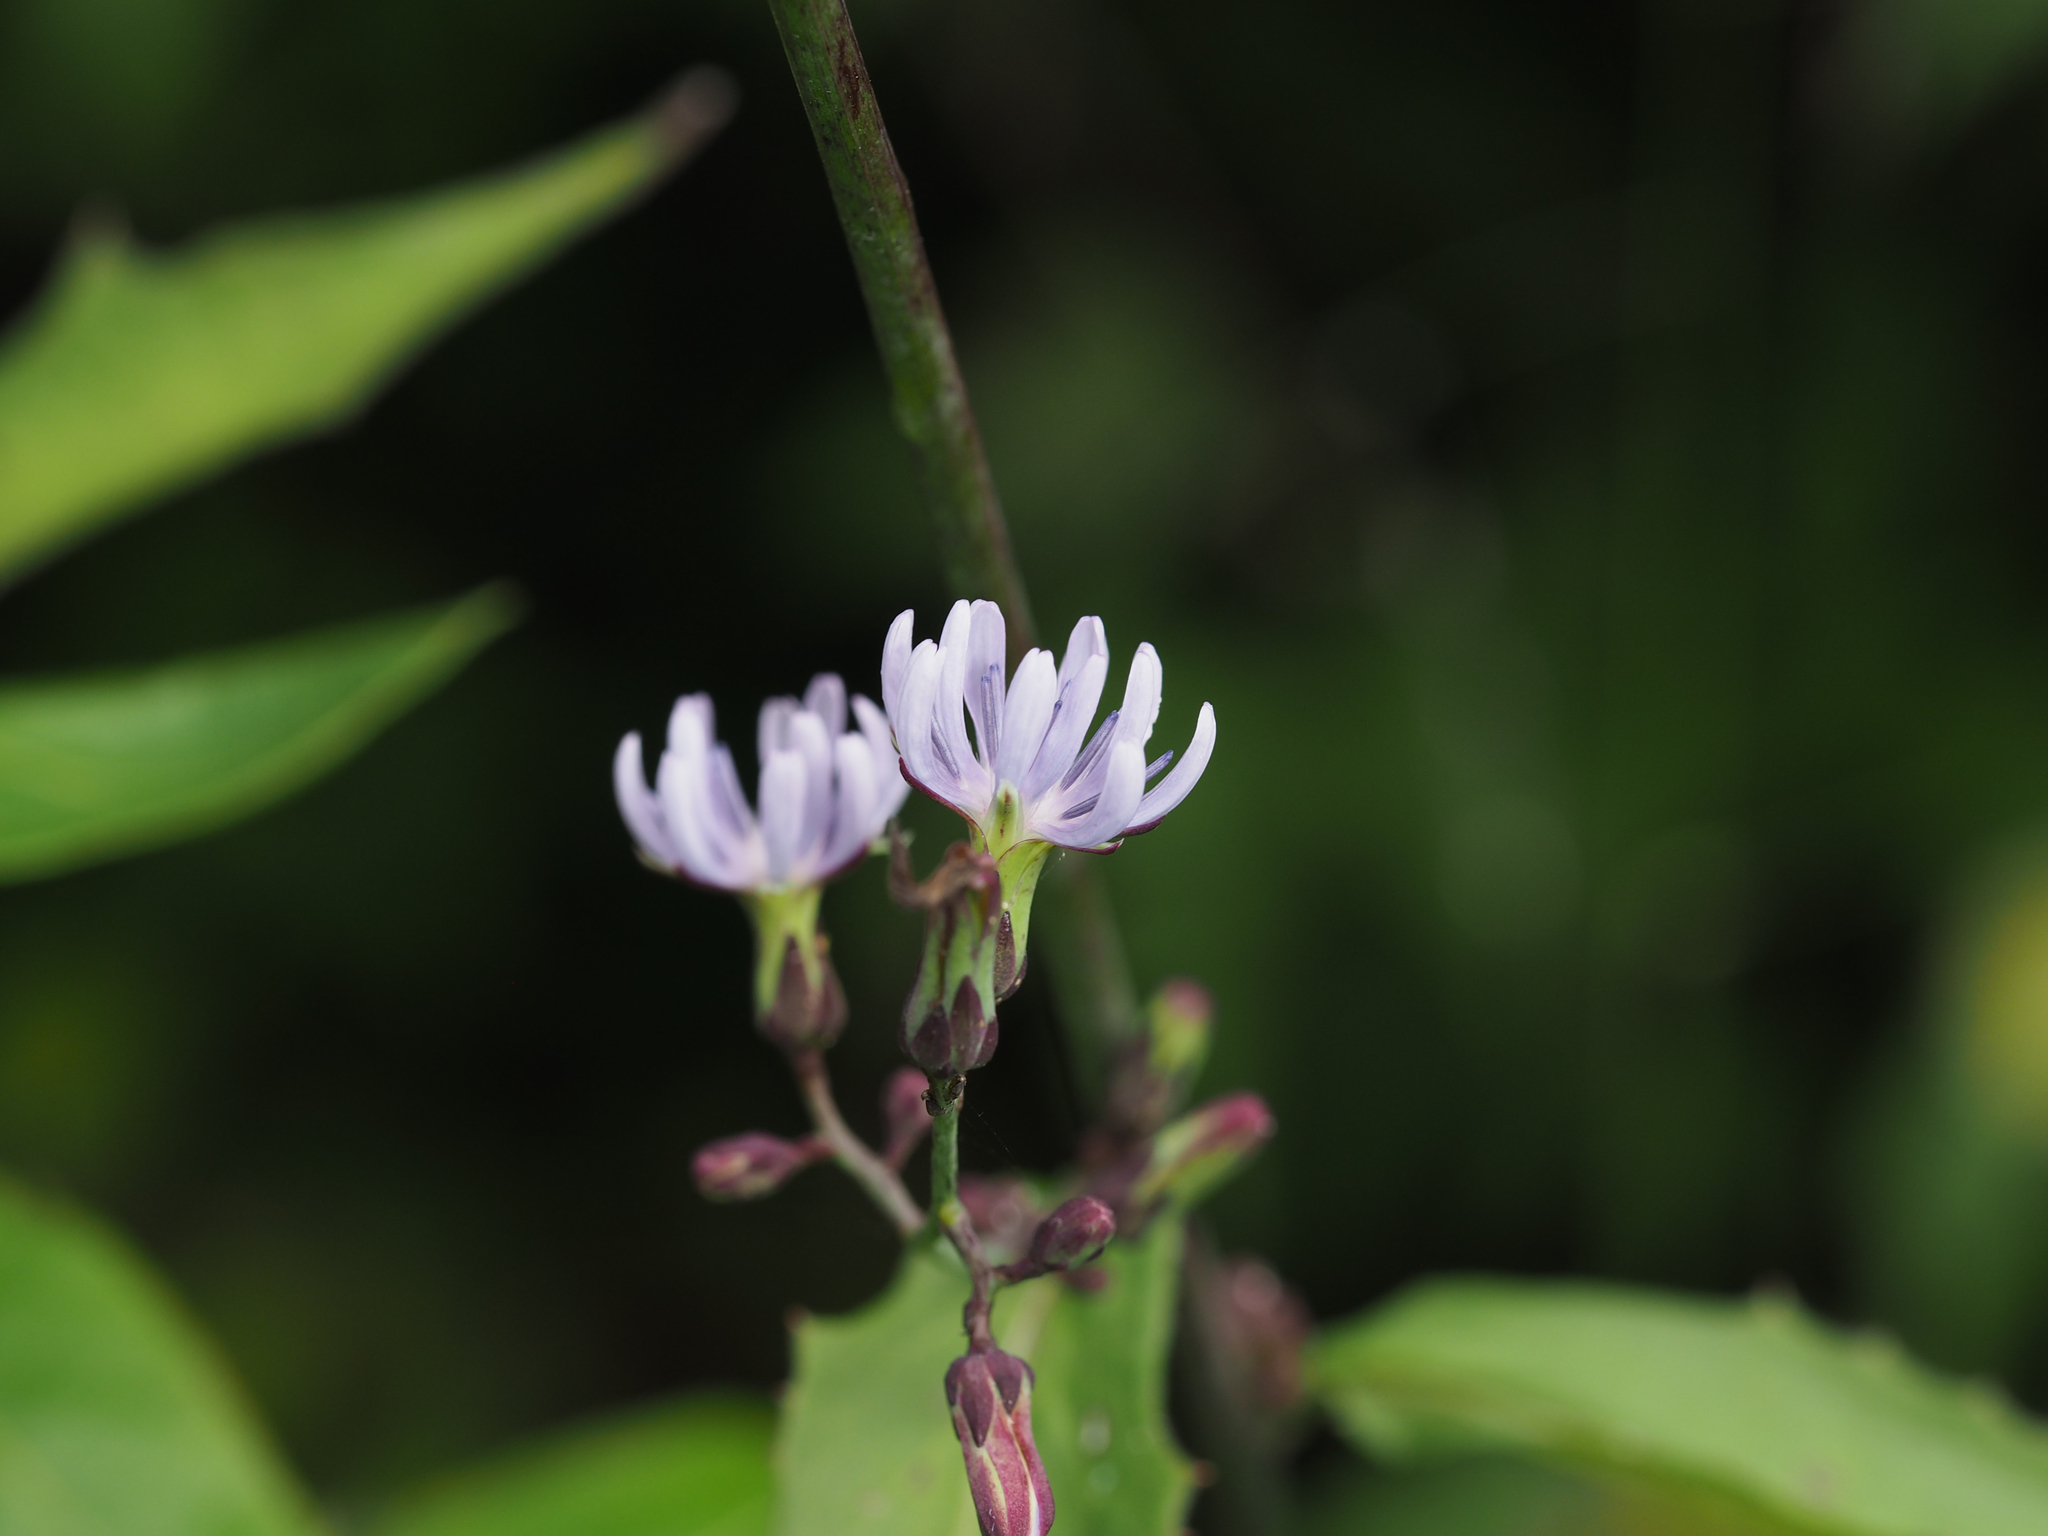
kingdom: Plantae
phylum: Tracheophyta
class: Magnoliopsida
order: Asterales
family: Asteraceae
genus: Lactuca
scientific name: Lactuca floridana
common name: Woodland lettuce
